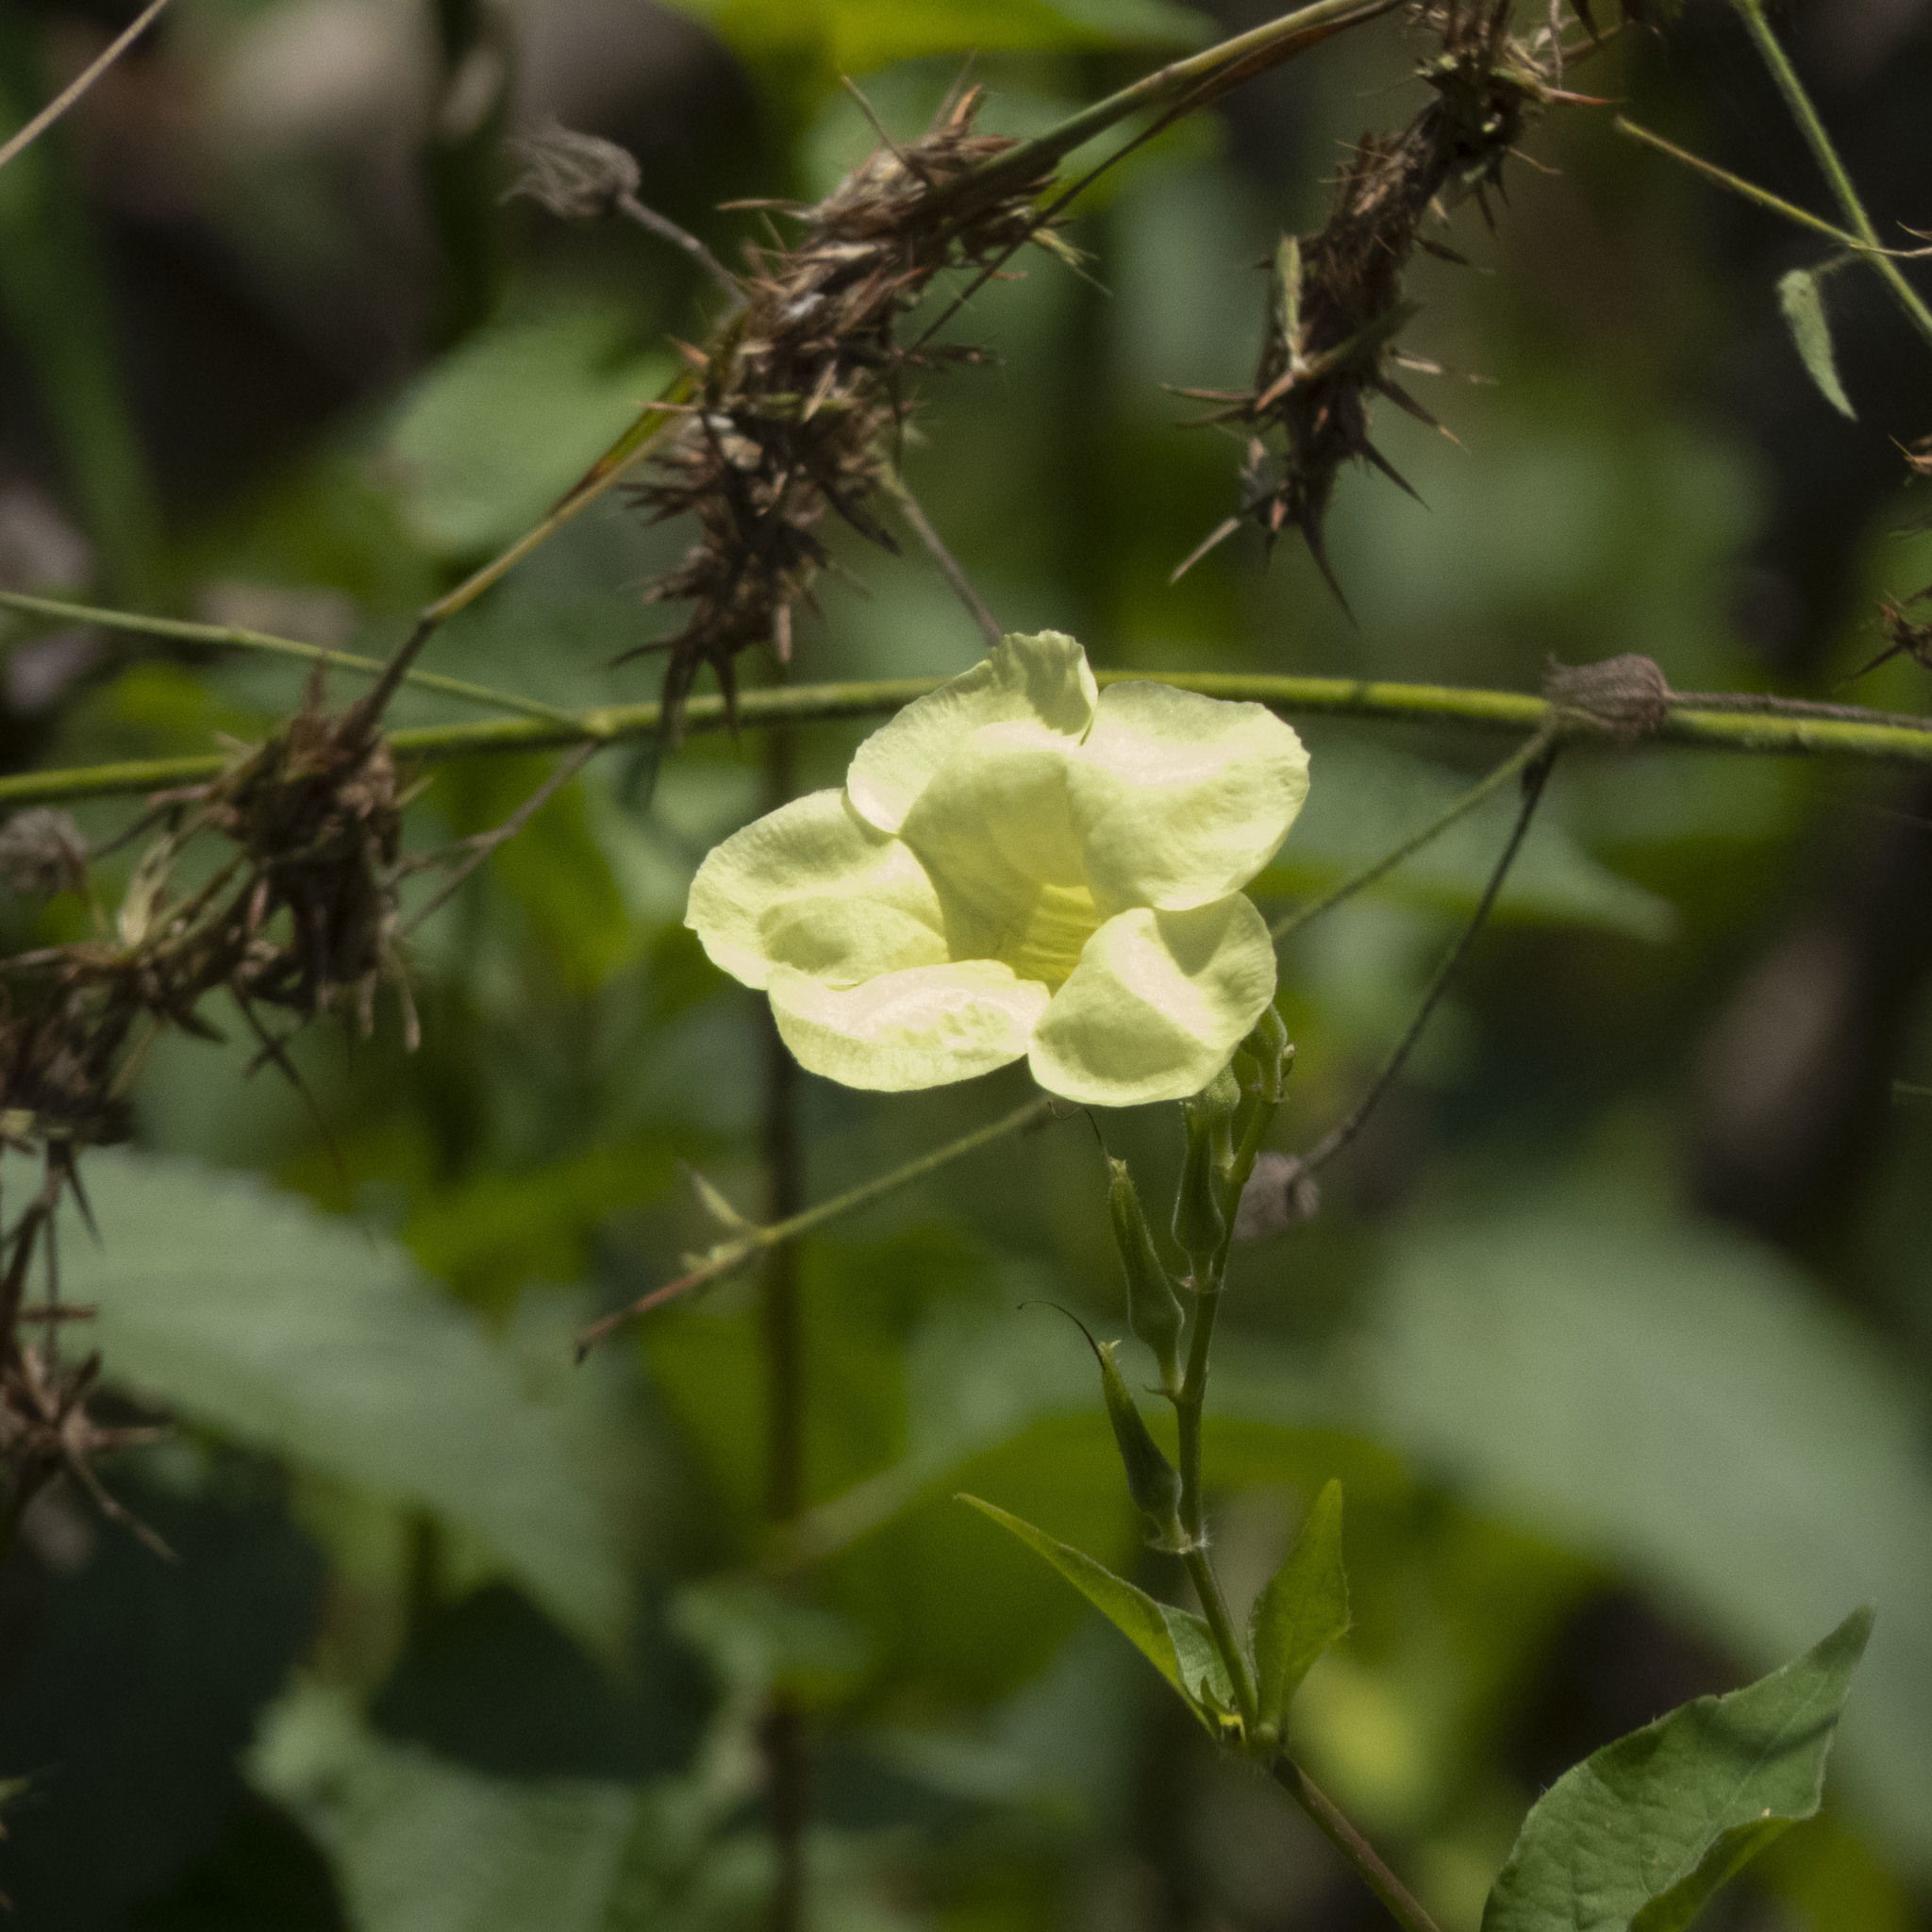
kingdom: Plantae
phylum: Tracheophyta
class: Magnoliopsida
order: Lamiales
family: Acanthaceae
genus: Asystasia
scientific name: Asystasia gangetica
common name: Chinese violet
